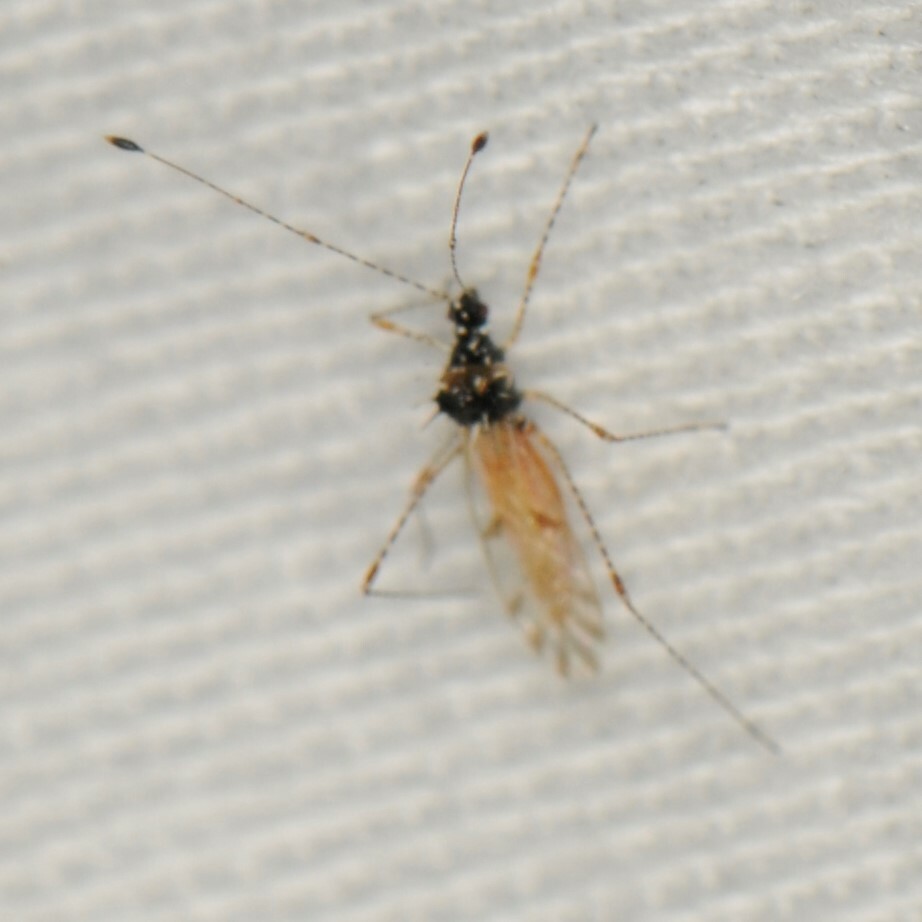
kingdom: Animalia
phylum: Arthropoda
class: Insecta
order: Hemiptera
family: Berytidae
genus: Pronotacantha
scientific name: Pronotacantha annulata
